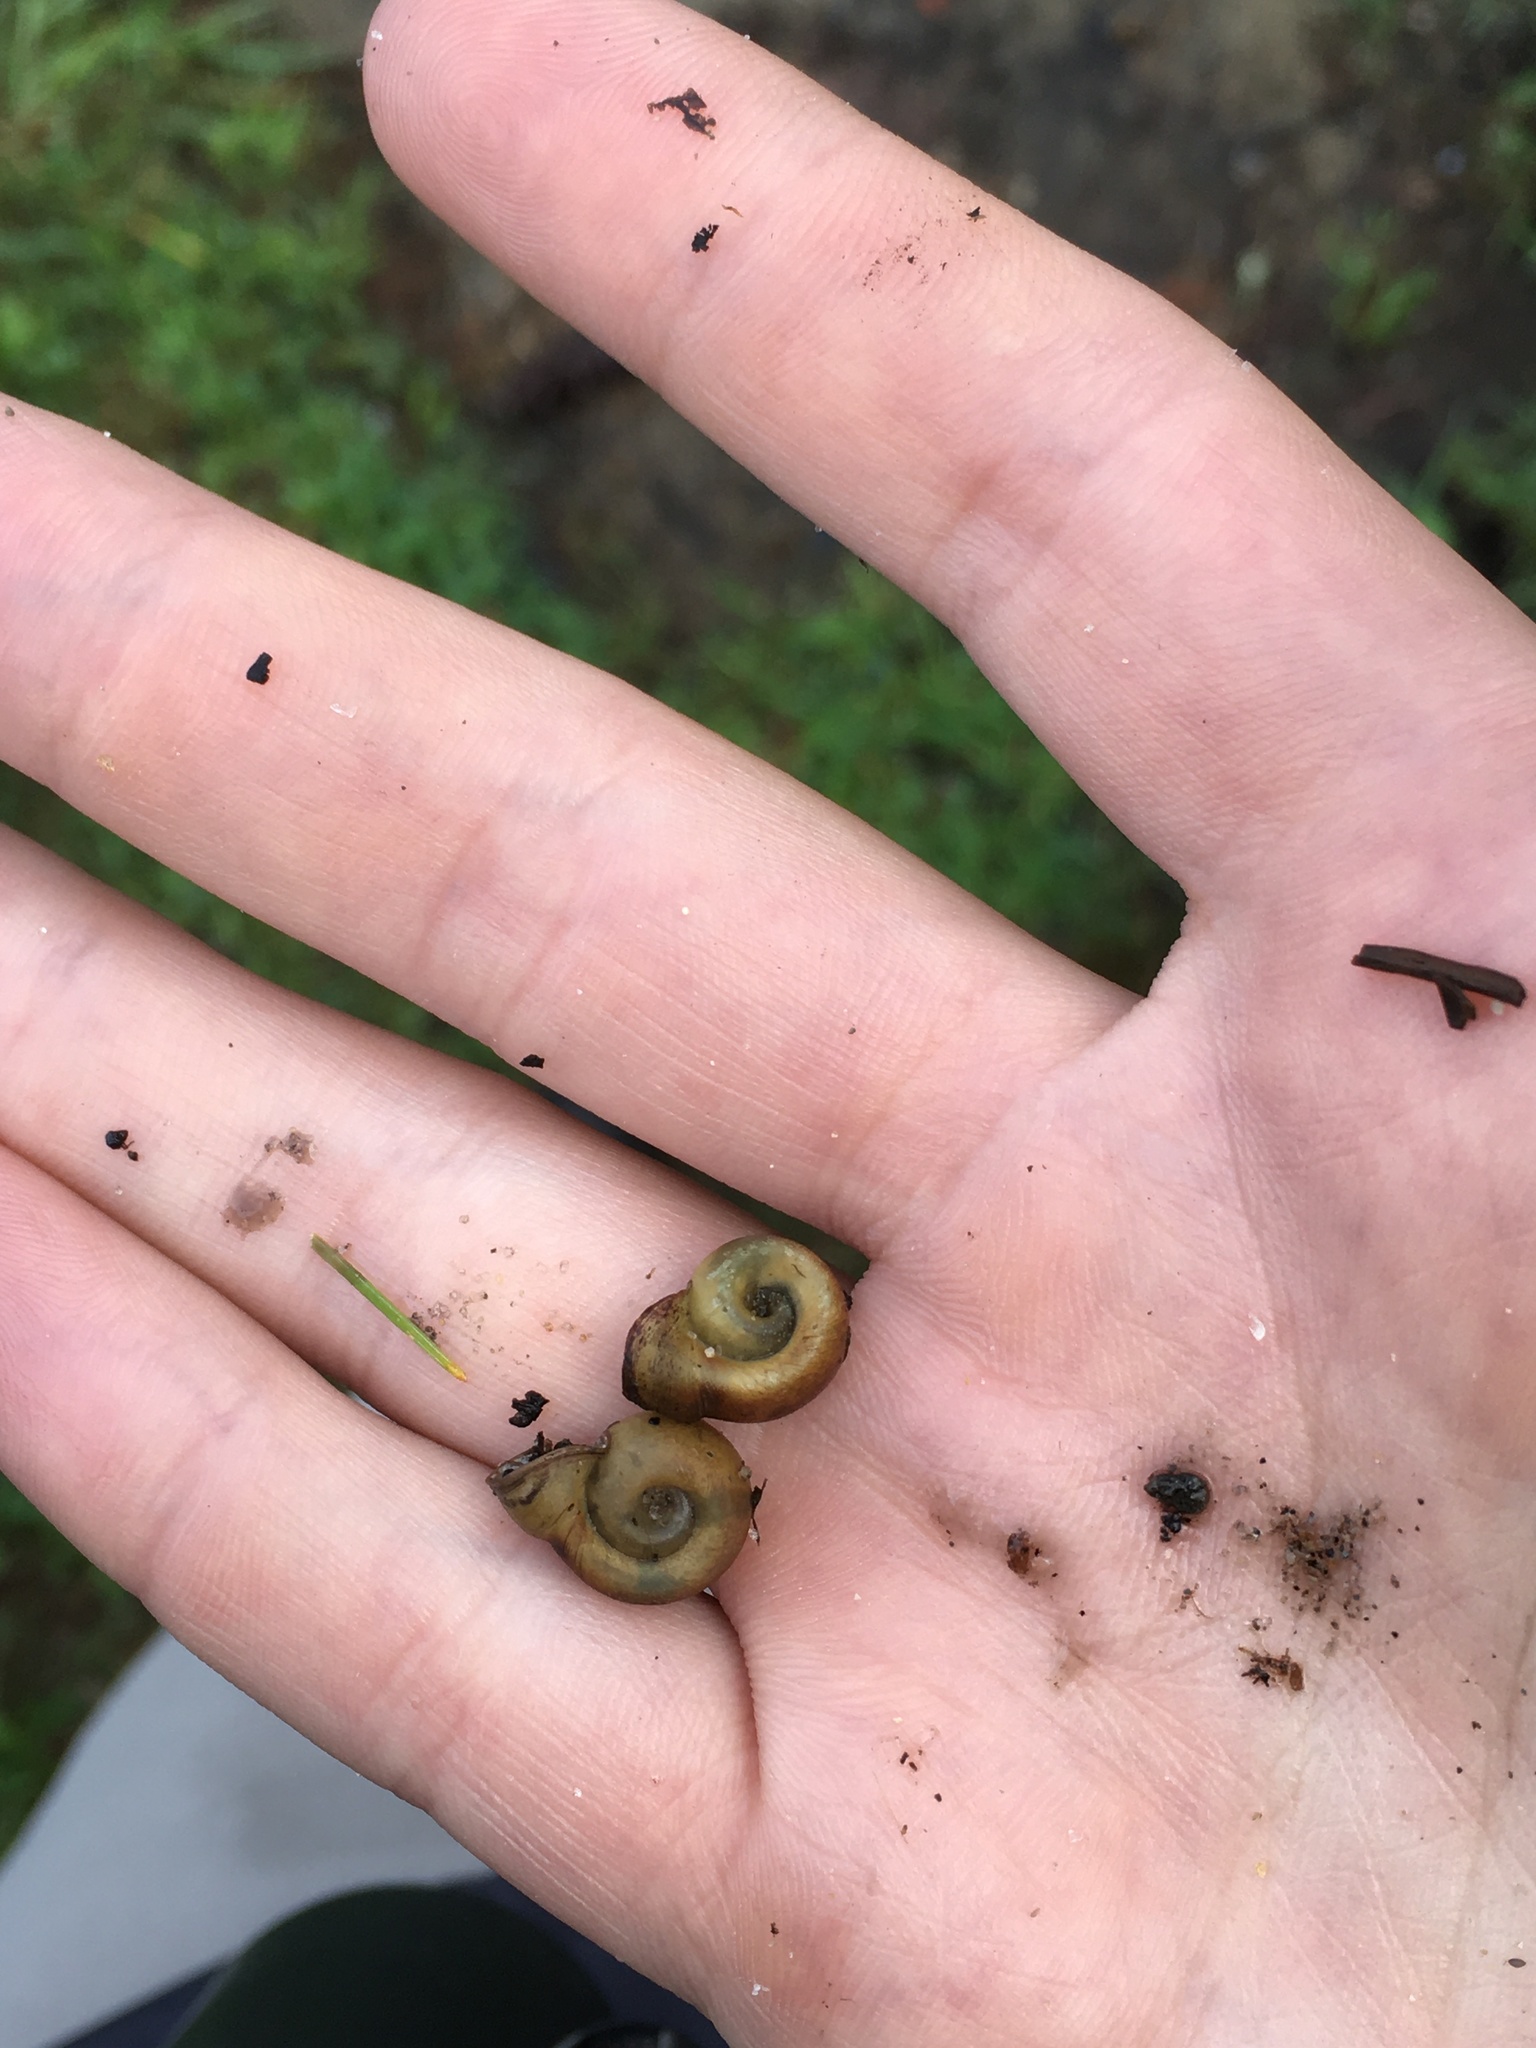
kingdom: Animalia
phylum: Mollusca
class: Gastropoda
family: Planorbidae
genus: Planorbella
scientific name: Planorbella campanulata
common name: Bellmouth ramshorn
